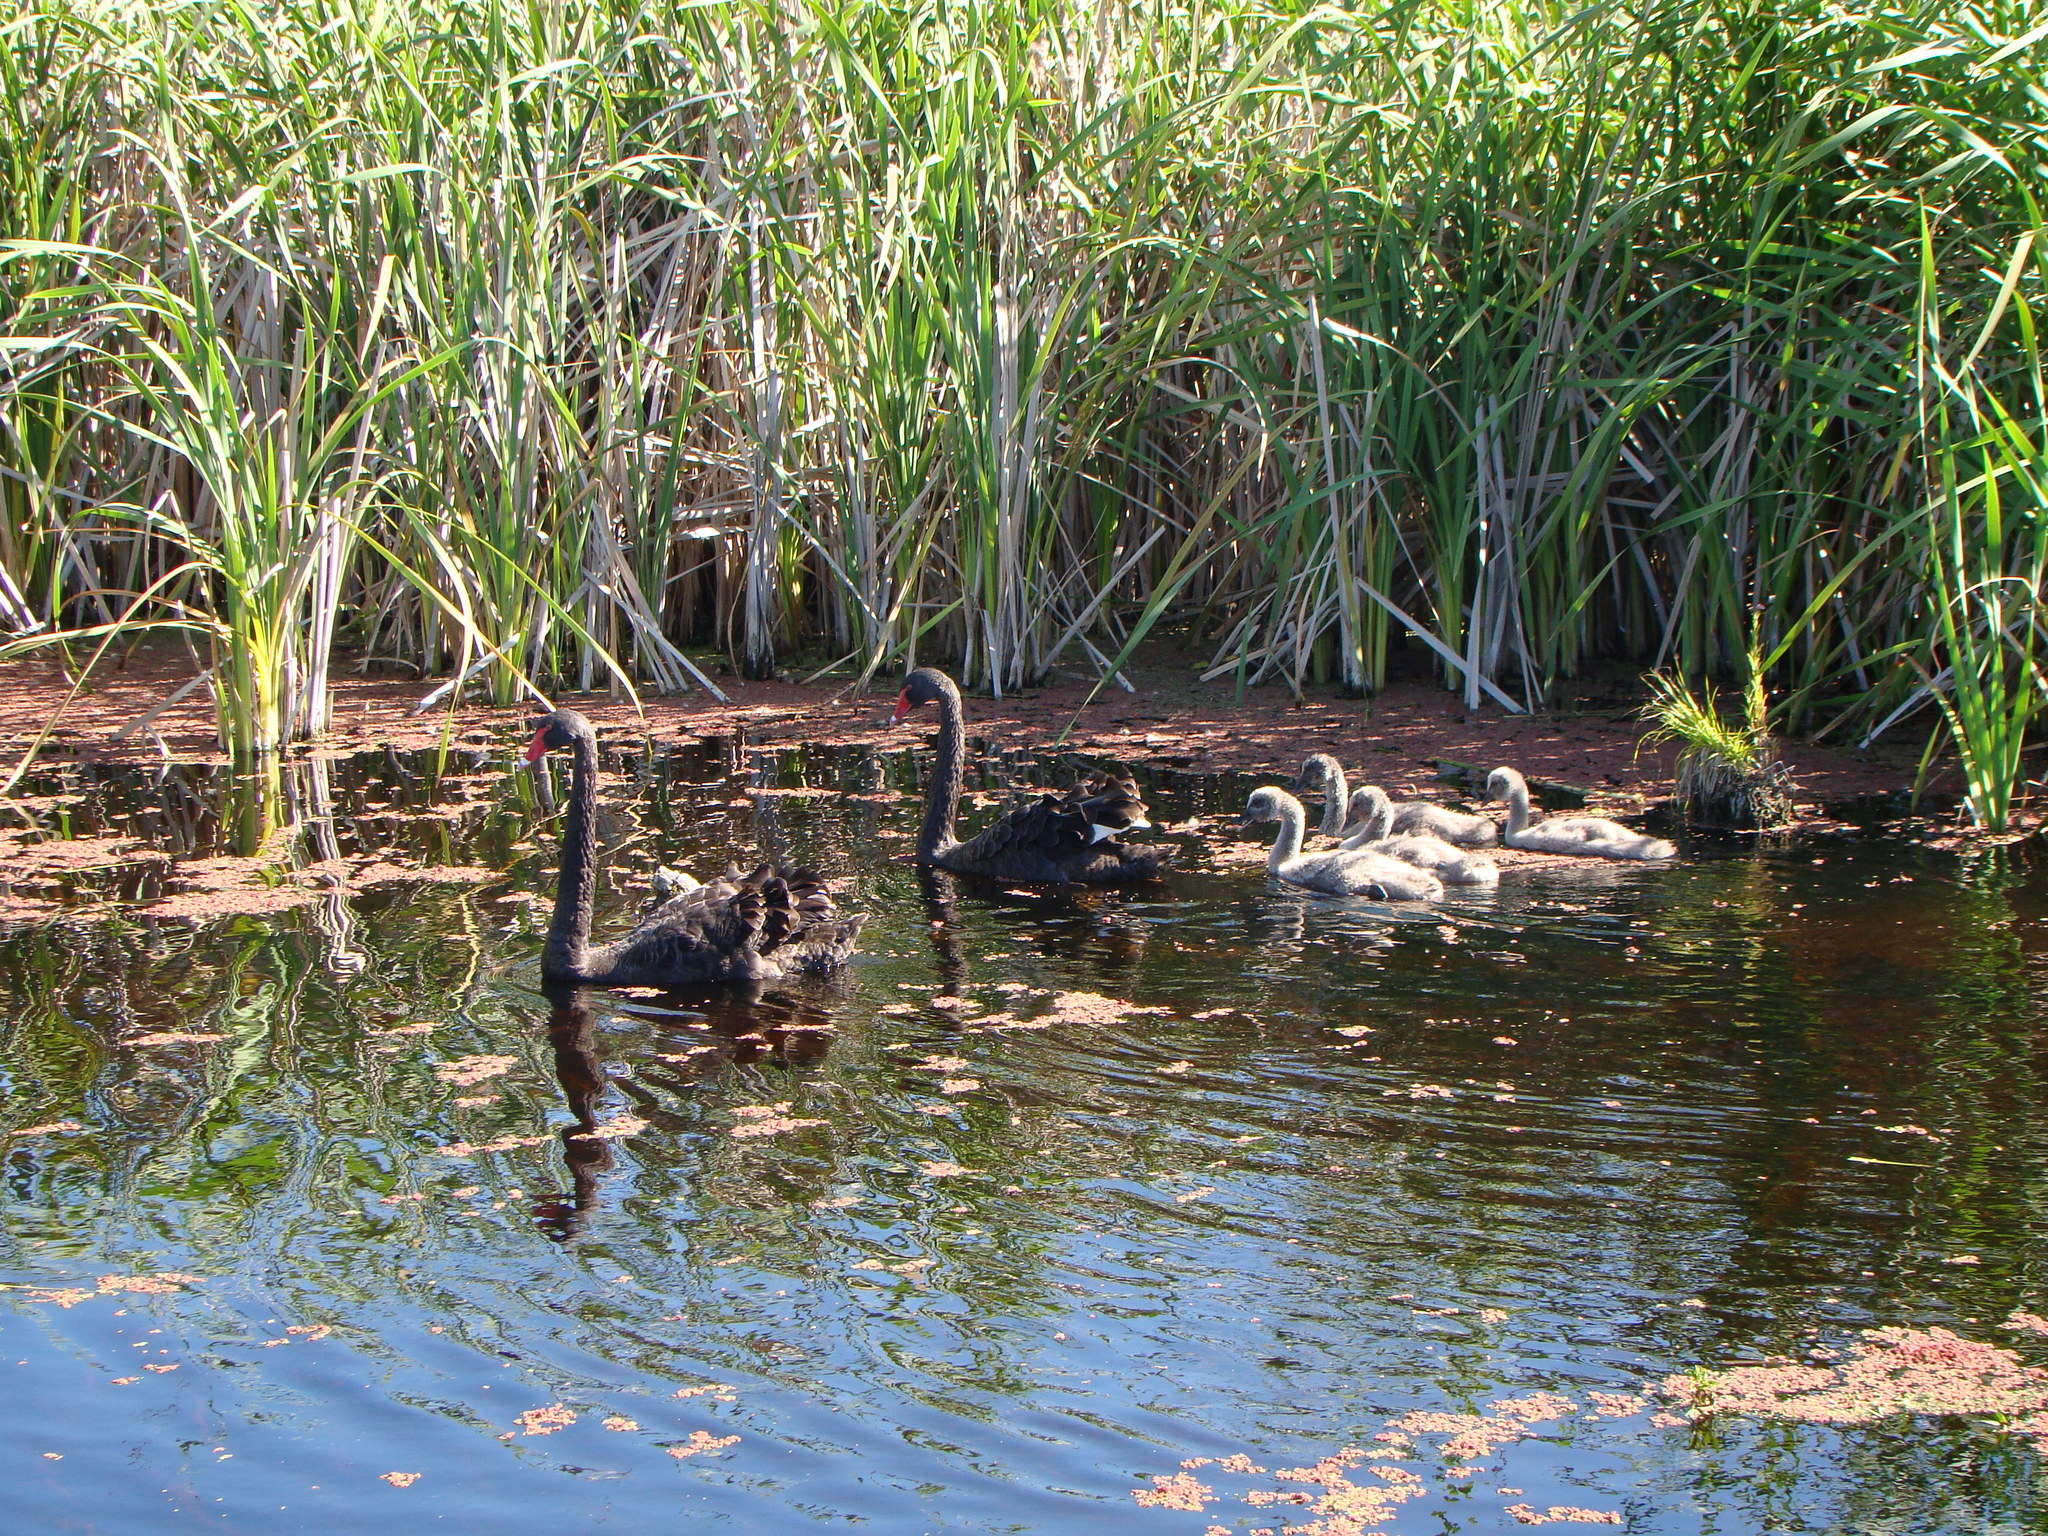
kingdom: Animalia
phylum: Chordata
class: Aves
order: Anseriformes
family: Anatidae
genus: Cygnus
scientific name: Cygnus atratus
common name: Black swan
